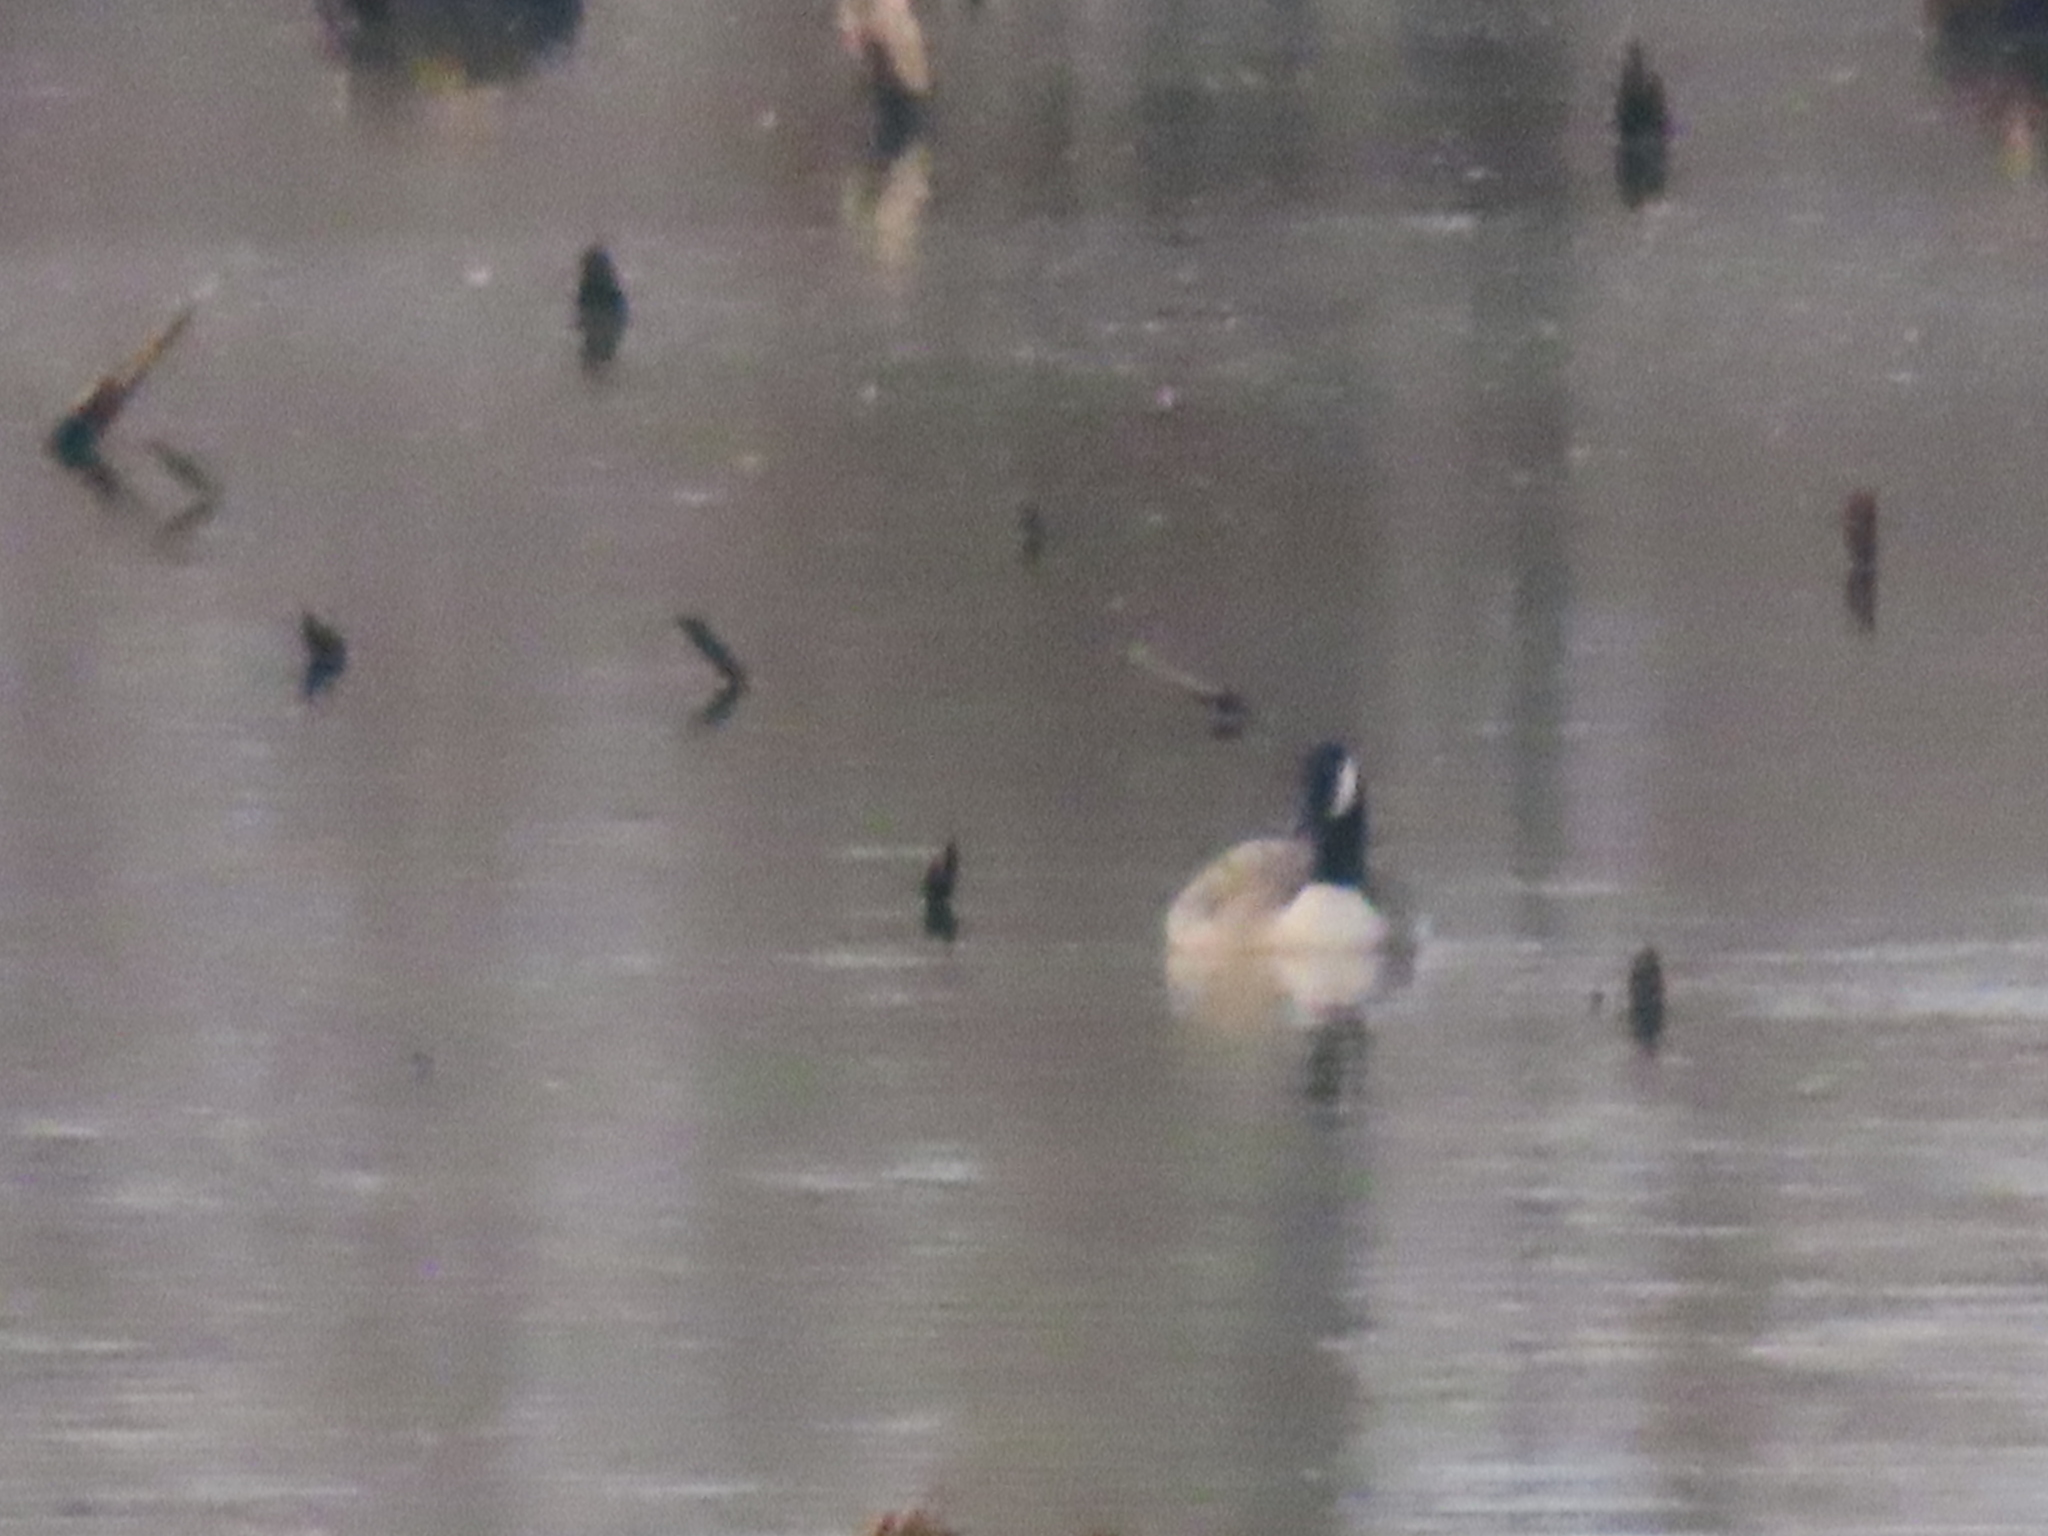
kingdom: Animalia
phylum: Chordata
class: Aves
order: Anseriformes
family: Anatidae
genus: Branta
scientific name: Branta canadensis
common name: Canada goose
